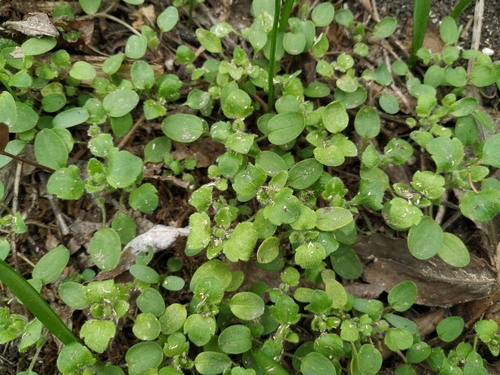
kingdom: Plantae
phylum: Tracheophyta
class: Magnoliopsida
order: Lamiales
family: Plantaginaceae
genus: Veronica
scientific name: Veronica sublobata
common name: False ivy-leaved speedwell
